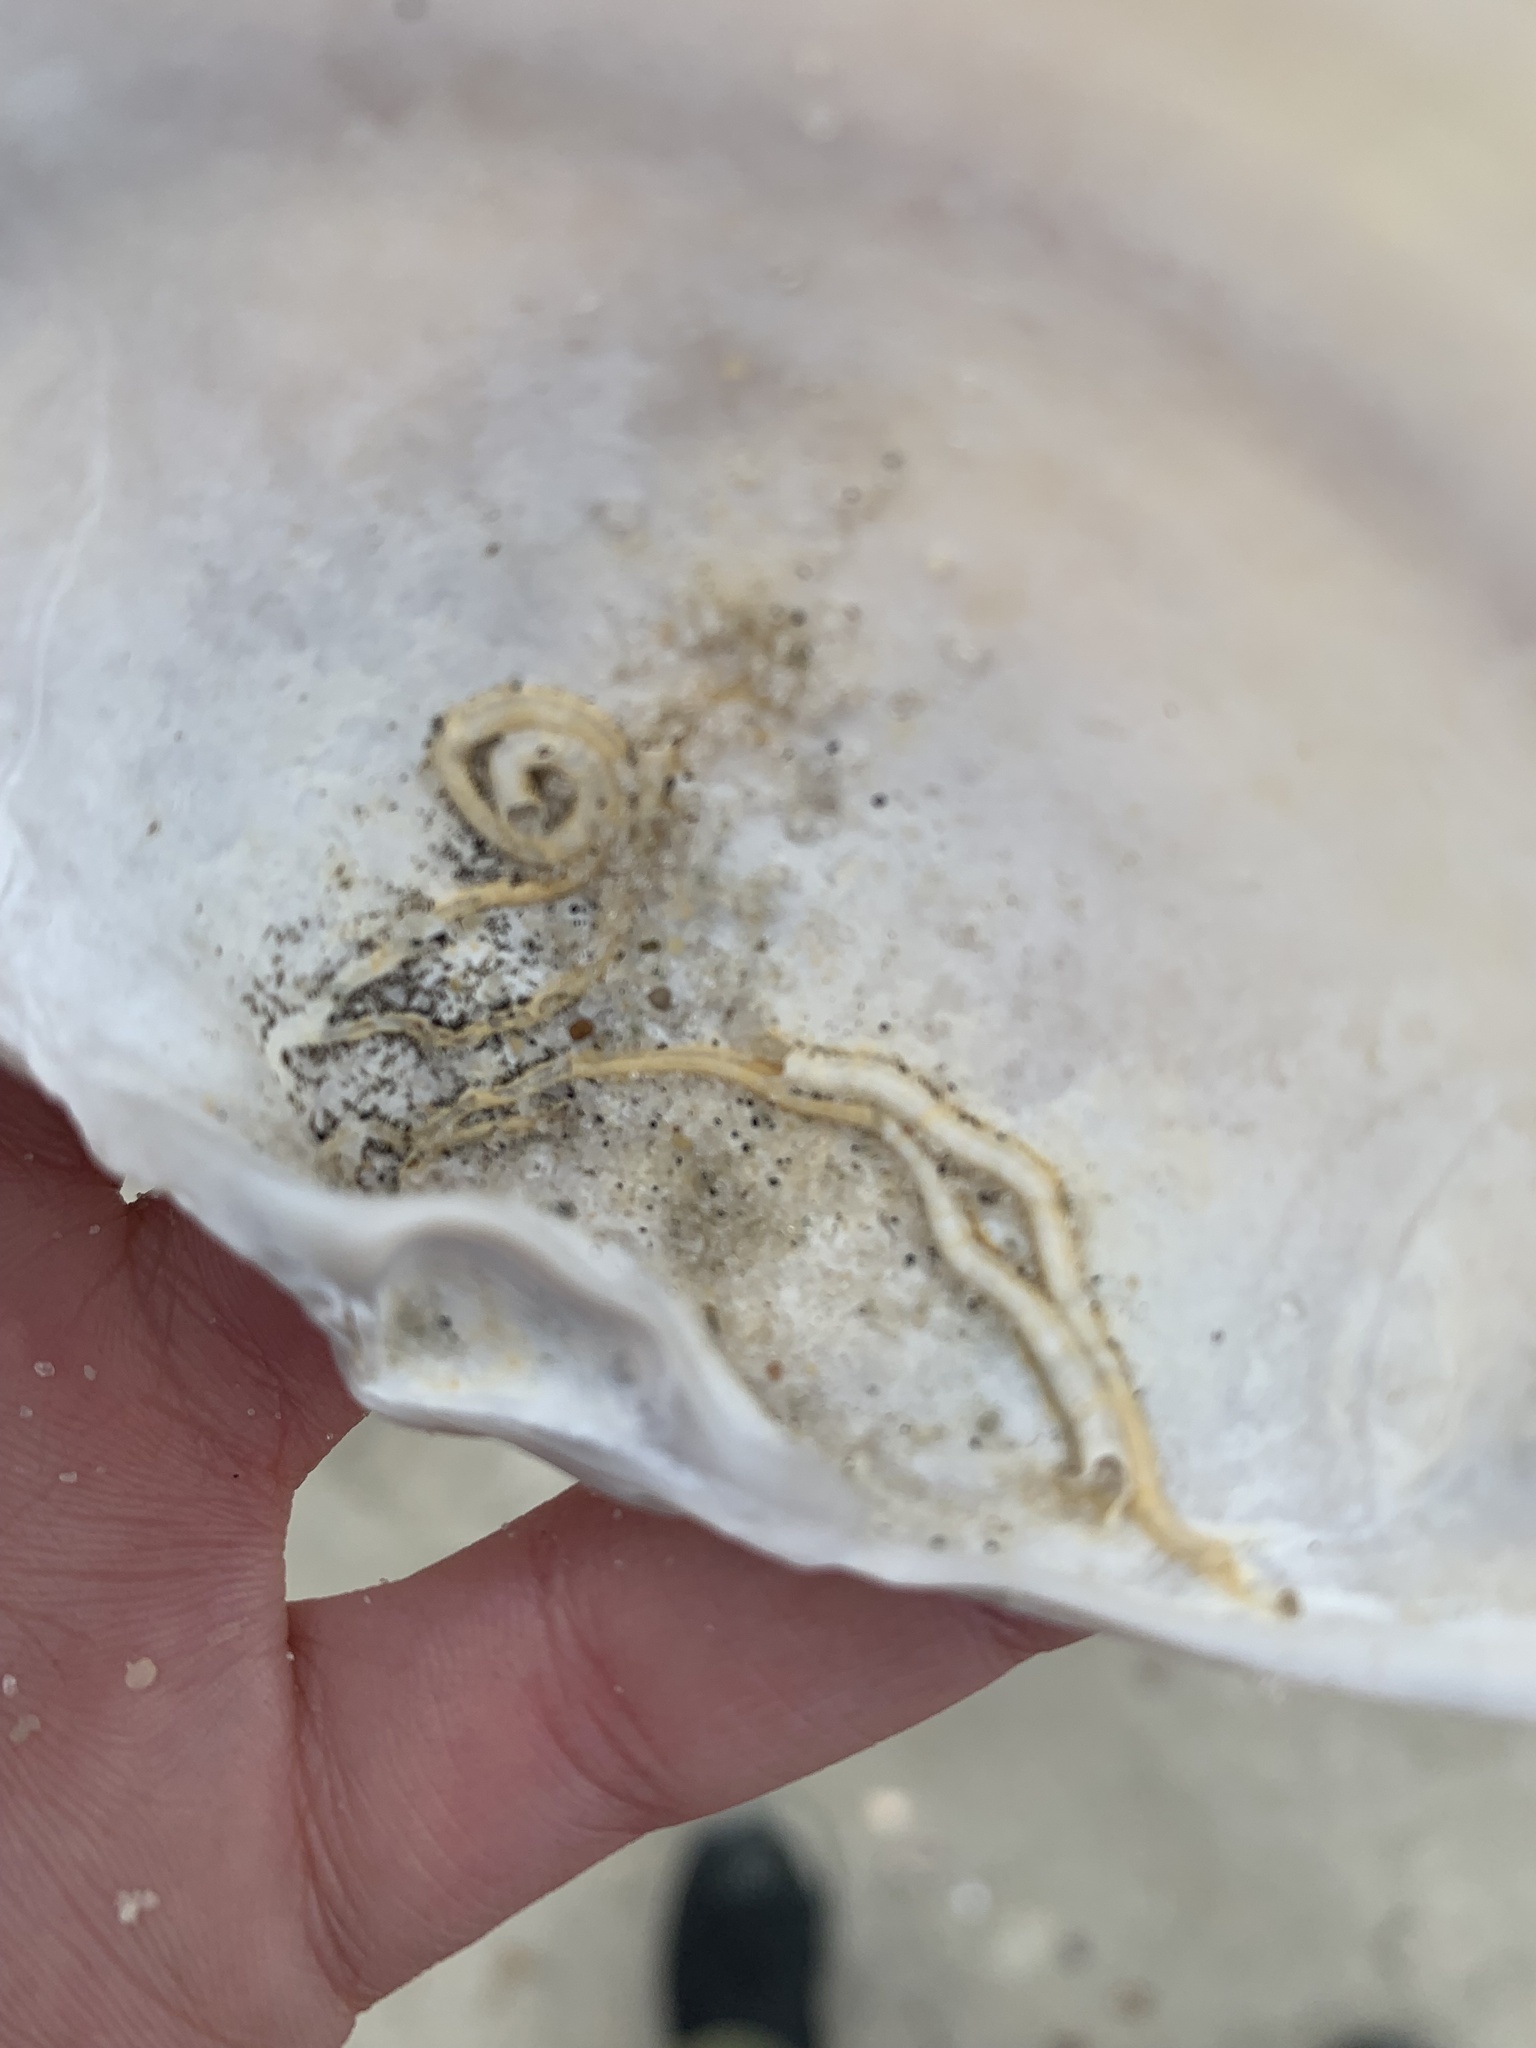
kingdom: Animalia
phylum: Mollusca
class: Bivalvia
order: Venerida
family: Mactridae
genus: Spisula
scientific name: Spisula solidissima
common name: Atlantic surf clam
